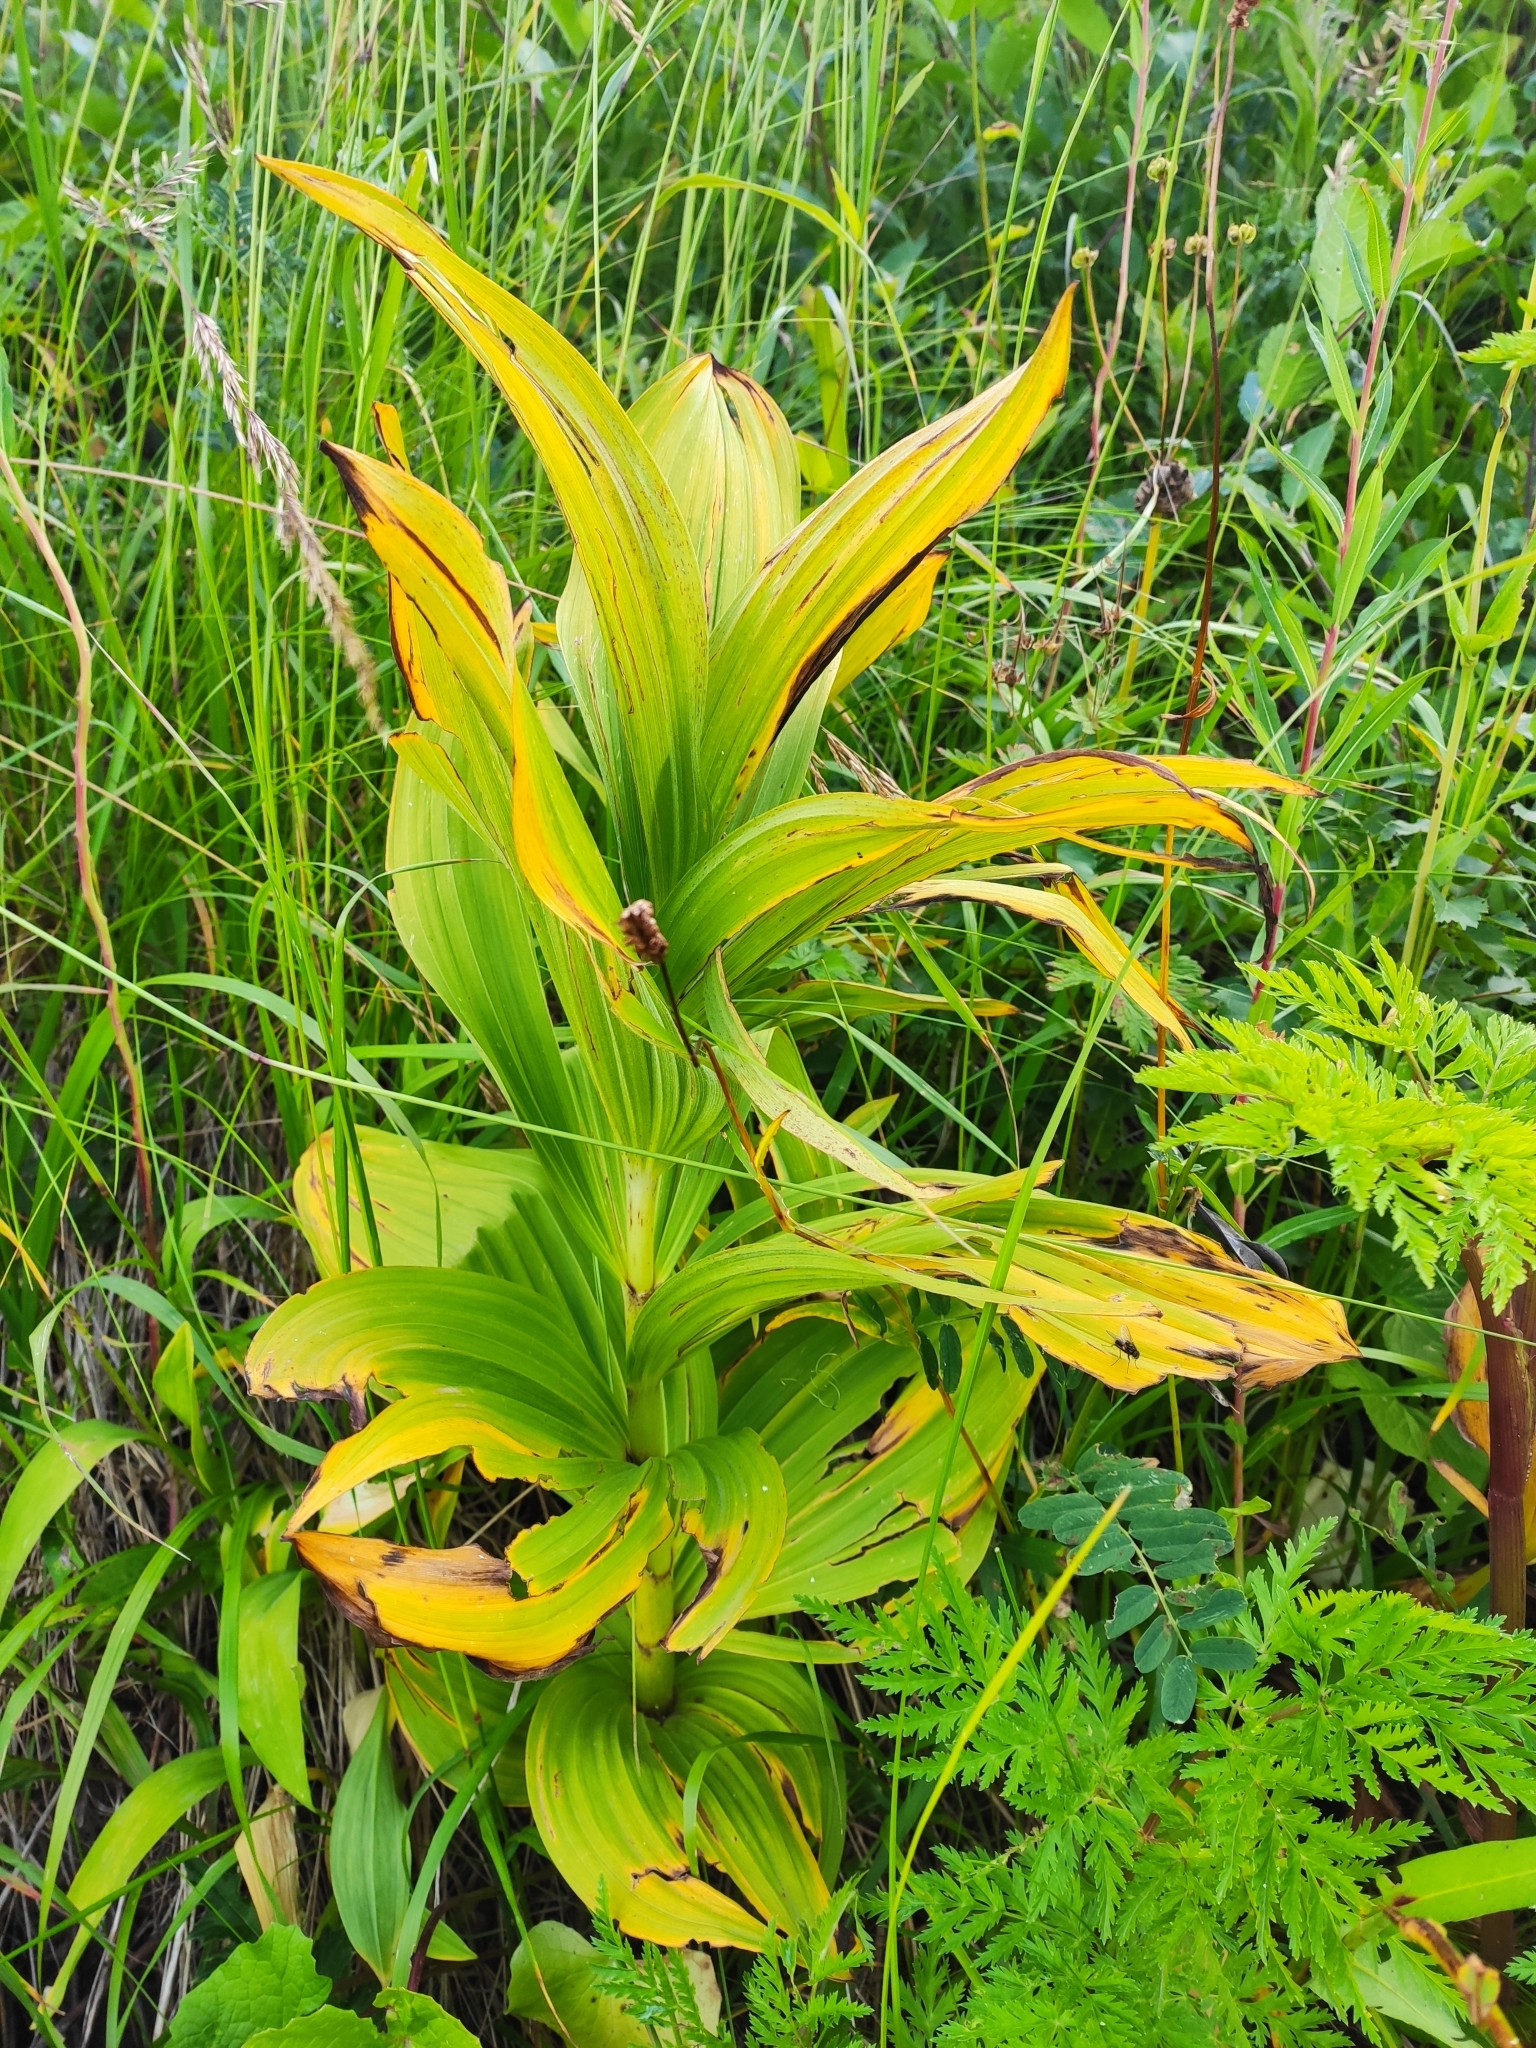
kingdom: Plantae
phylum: Tracheophyta
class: Liliopsida
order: Liliales
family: Melanthiaceae
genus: Veratrum
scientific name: Veratrum lobelianum
